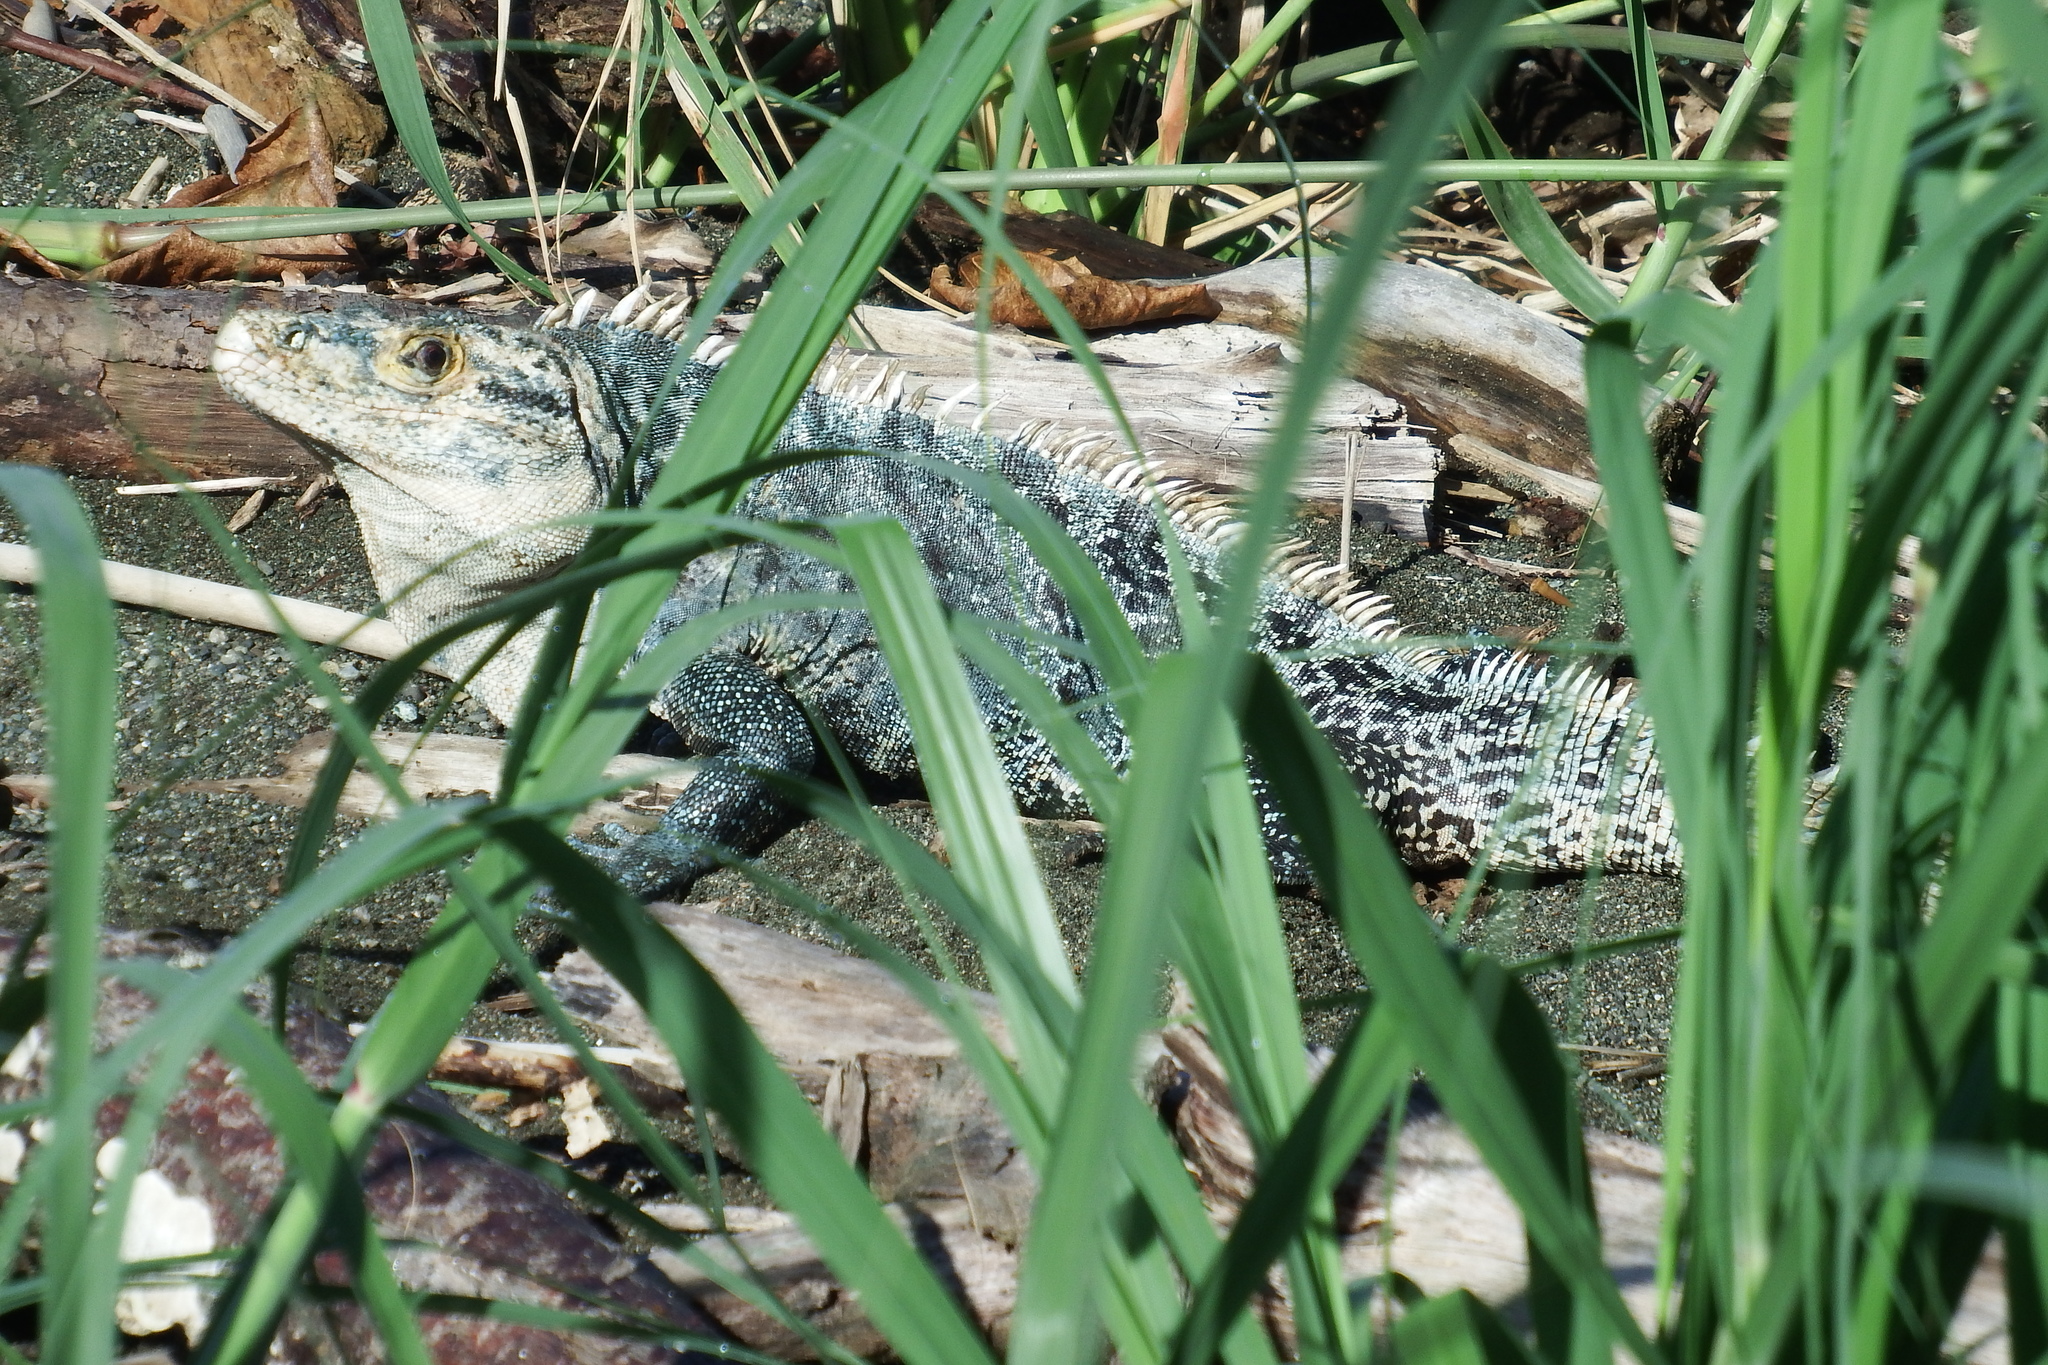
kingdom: Animalia
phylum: Chordata
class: Squamata
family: Iguanidae
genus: Ctenosaura
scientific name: Ctenosaura similis
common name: Black spiny-tailed iguana
